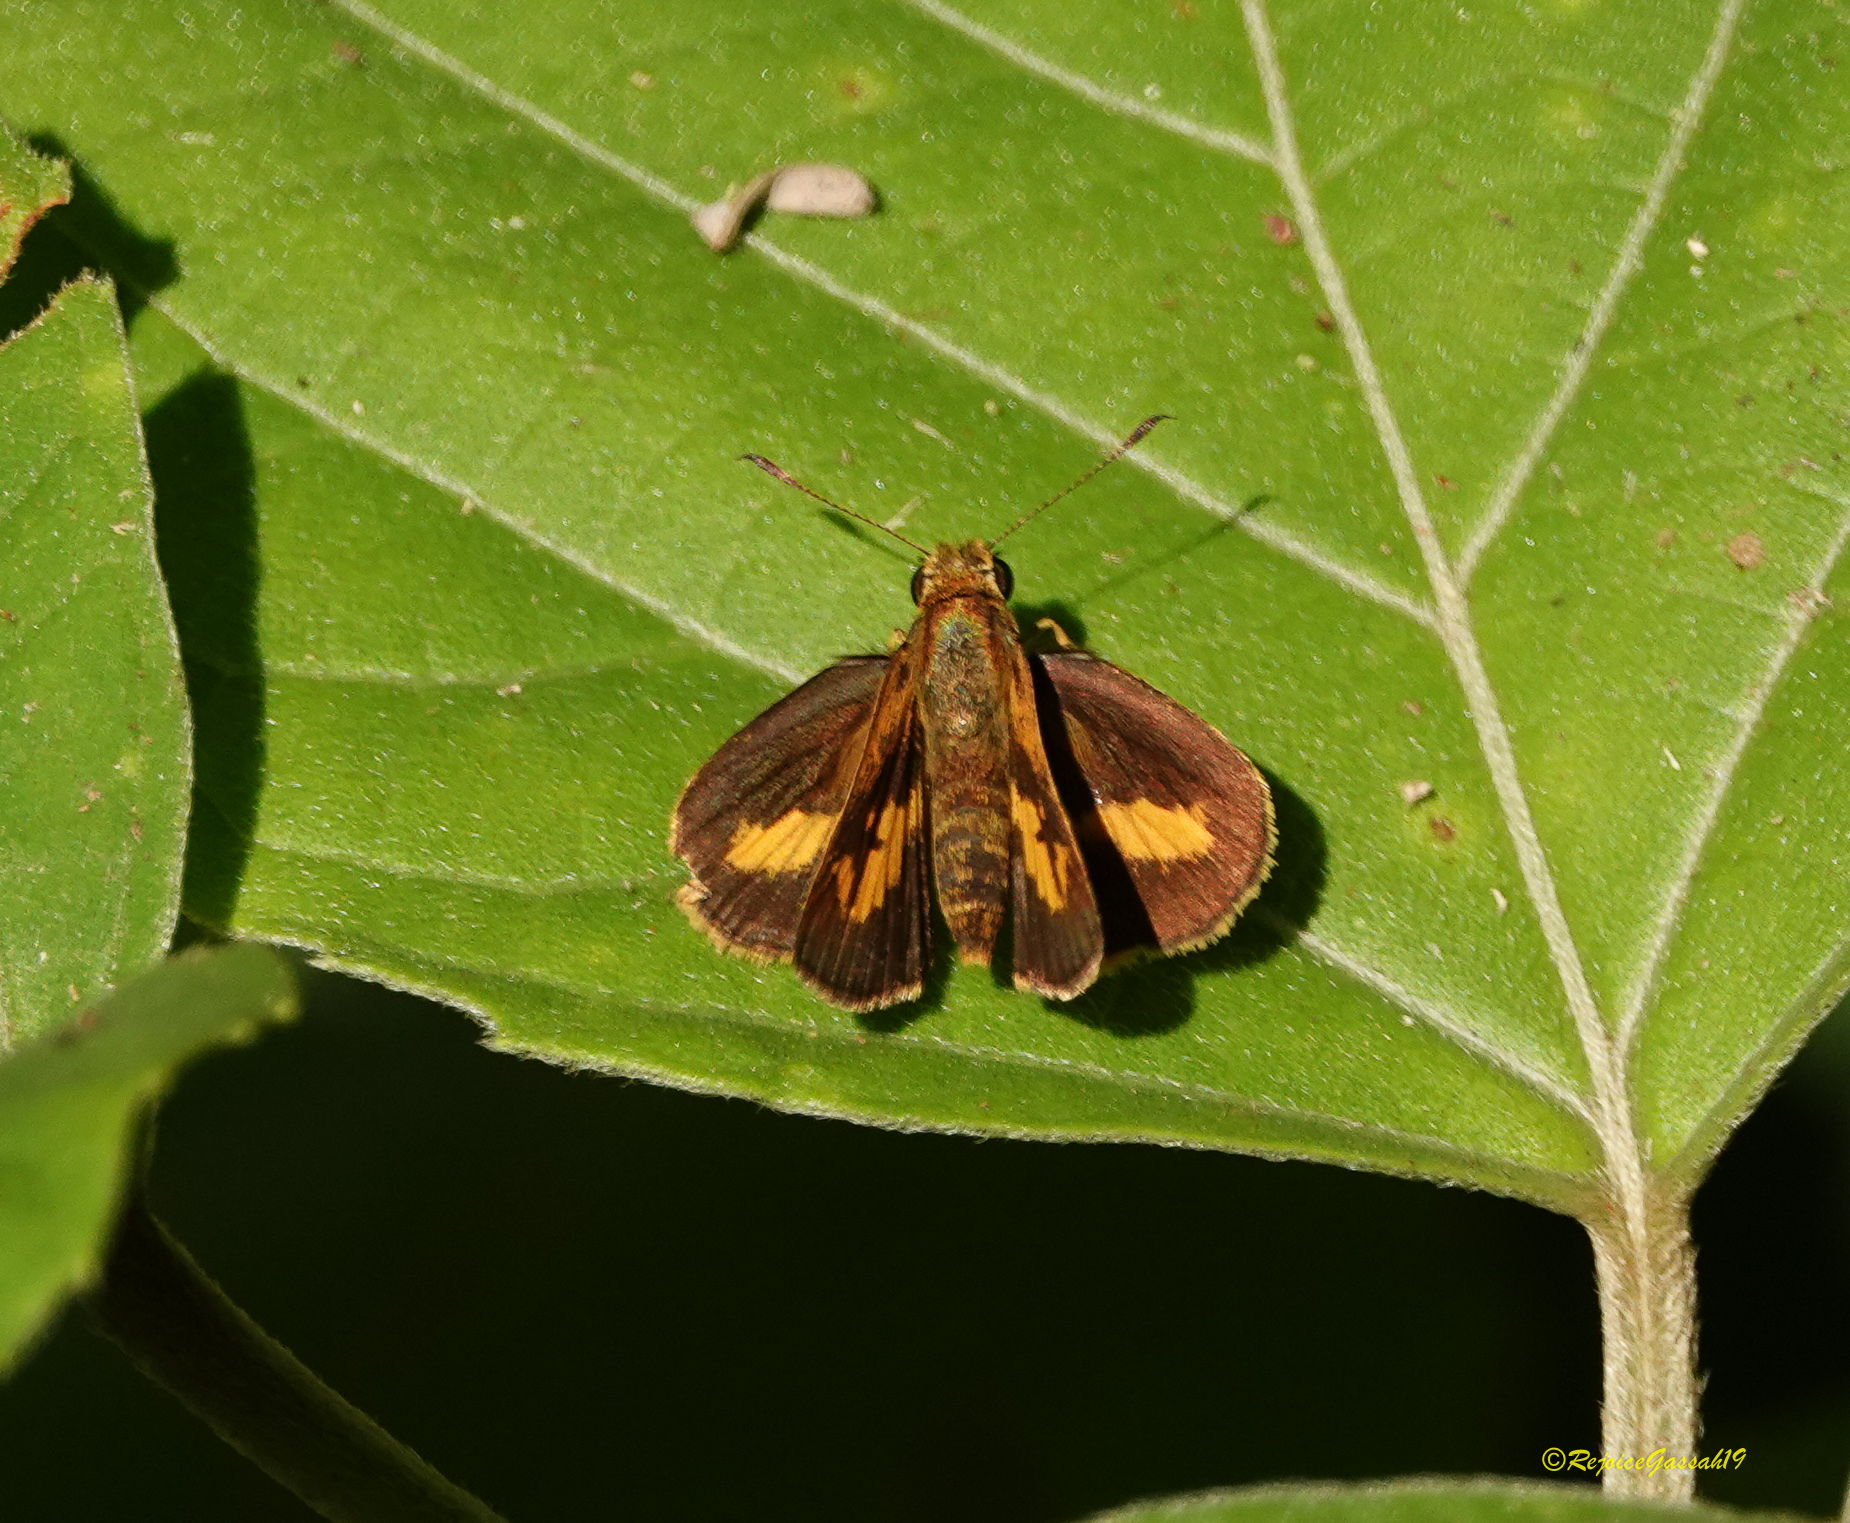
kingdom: Animalia
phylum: Arthropoda
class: Insecta
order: Lepidoptera
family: Hesperiidae
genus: Oriens
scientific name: Oriens gola
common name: Common dartlet
